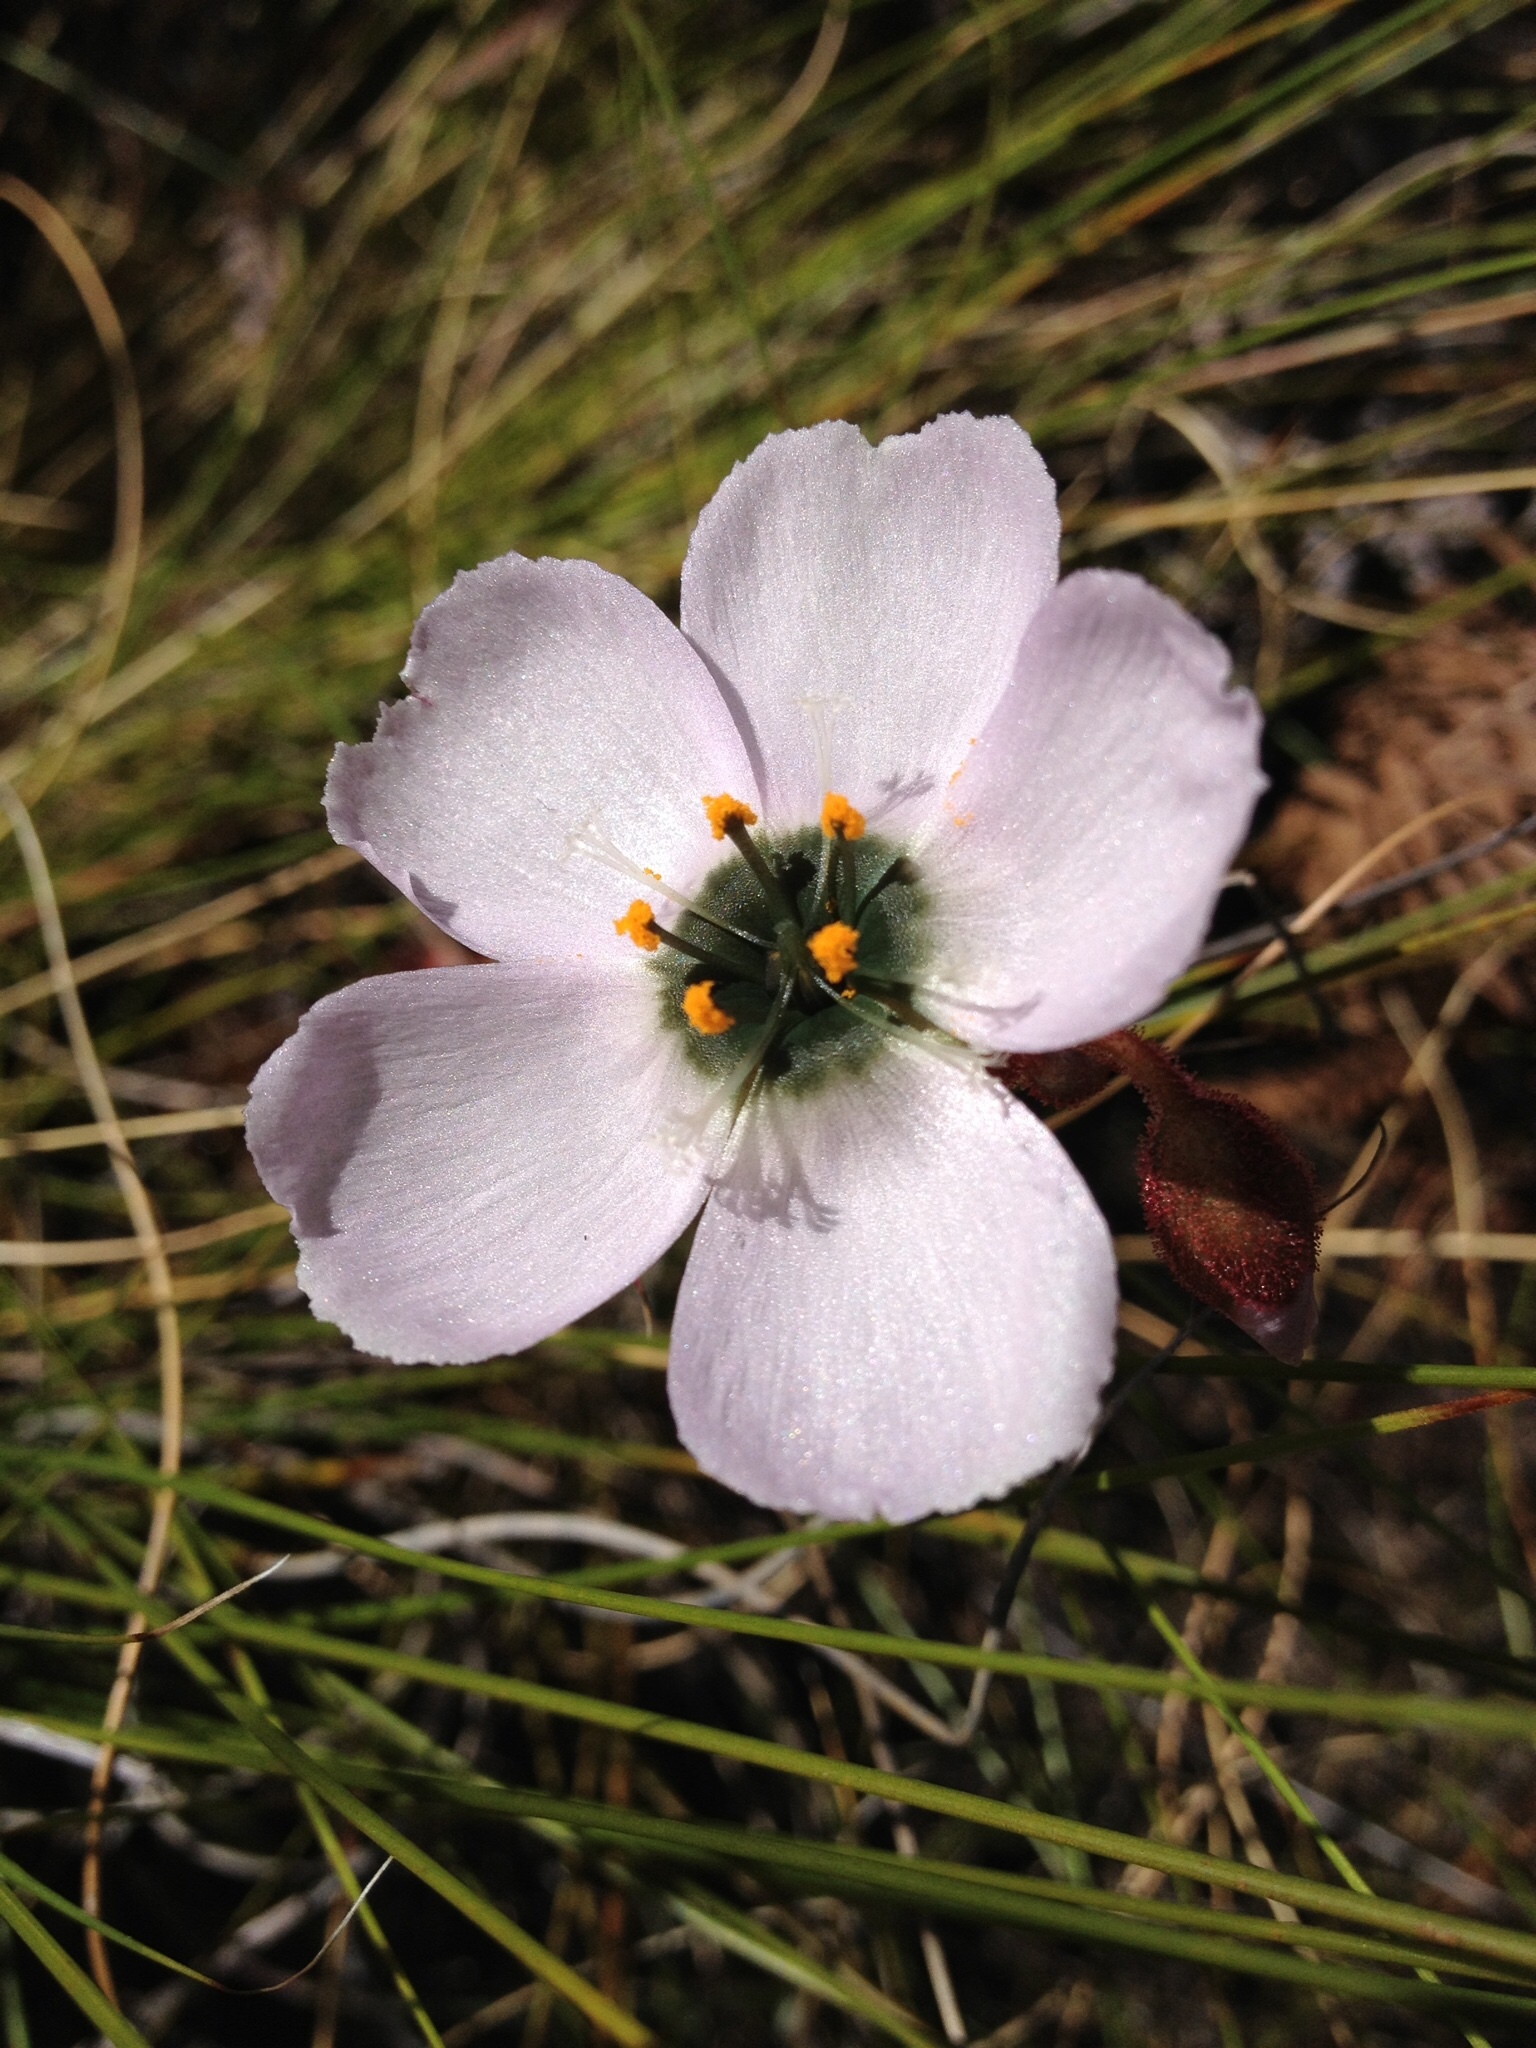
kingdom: Plantae
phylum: Tracheophyta
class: Magnoliopsida
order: Caryophyllales
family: Droseraceae
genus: Drosera
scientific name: Drosera cistiflora
